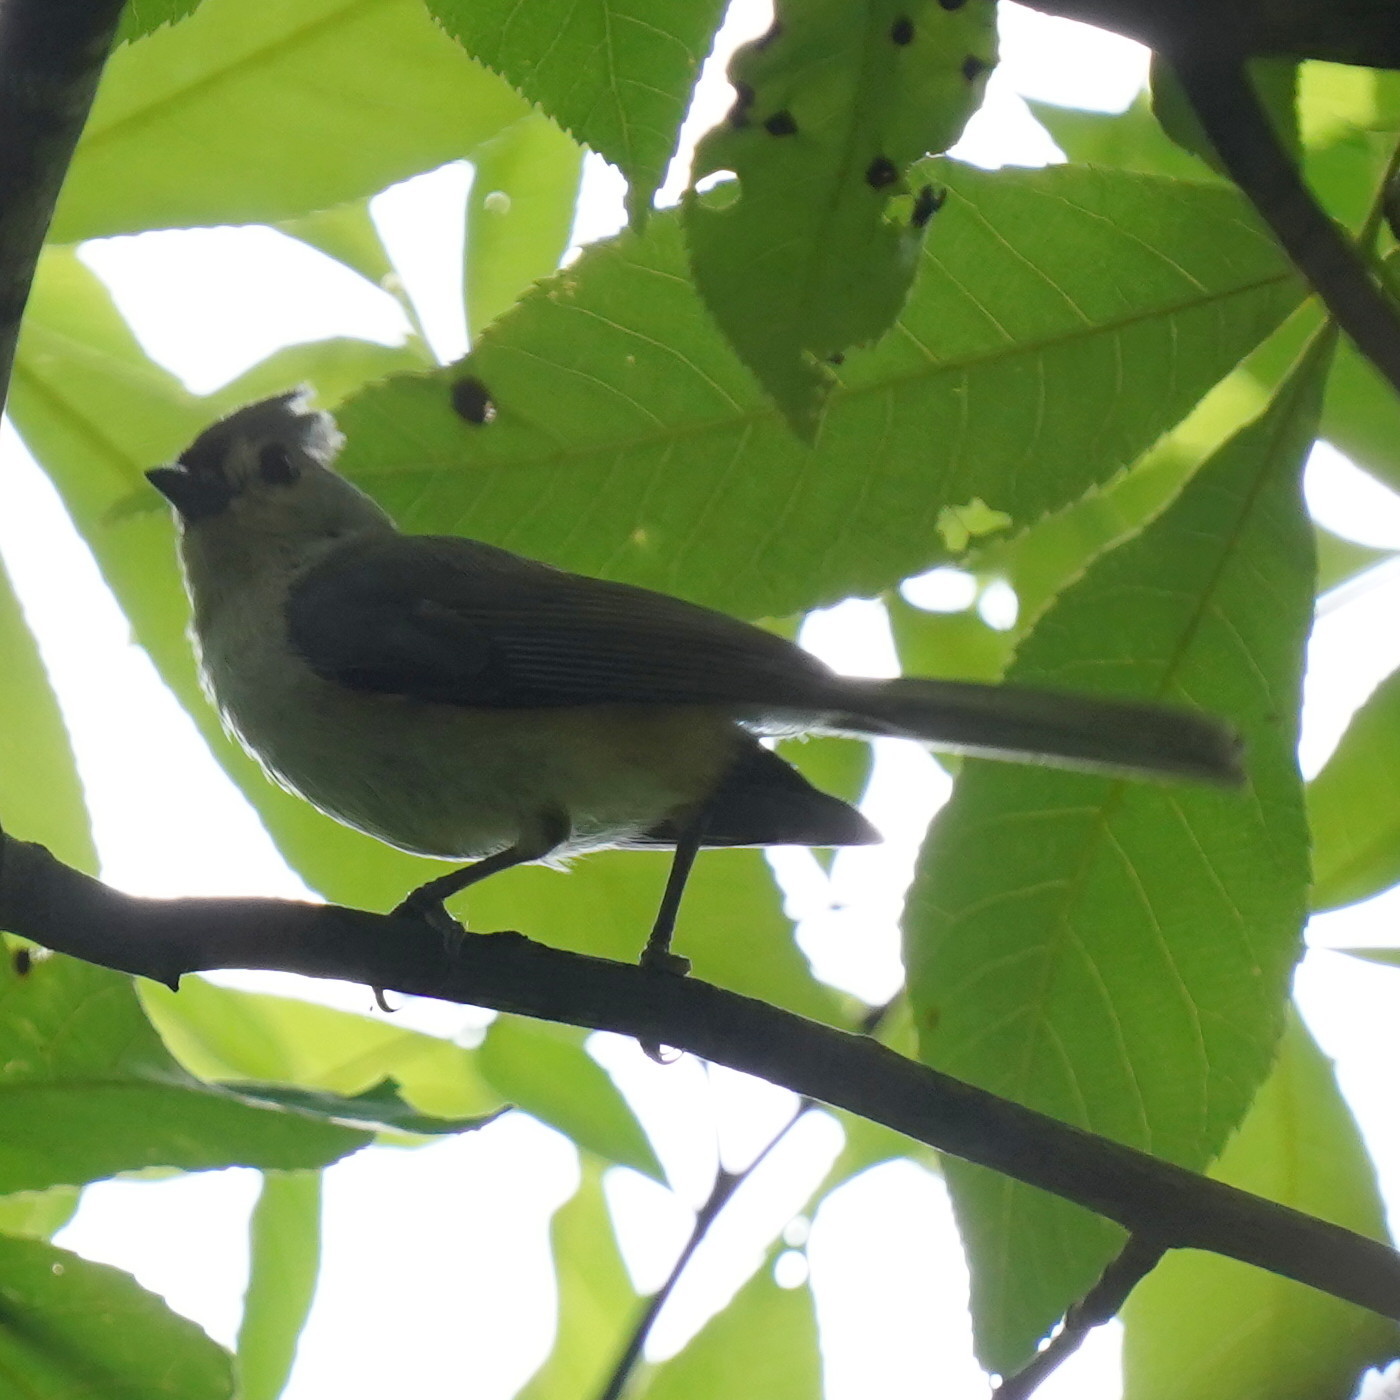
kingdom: Animalia
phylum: Chordata
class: Aves
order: Passeriformes
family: Paridae
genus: Baeolophus
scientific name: Baeolophus bicolor
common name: Tufted titmouse
